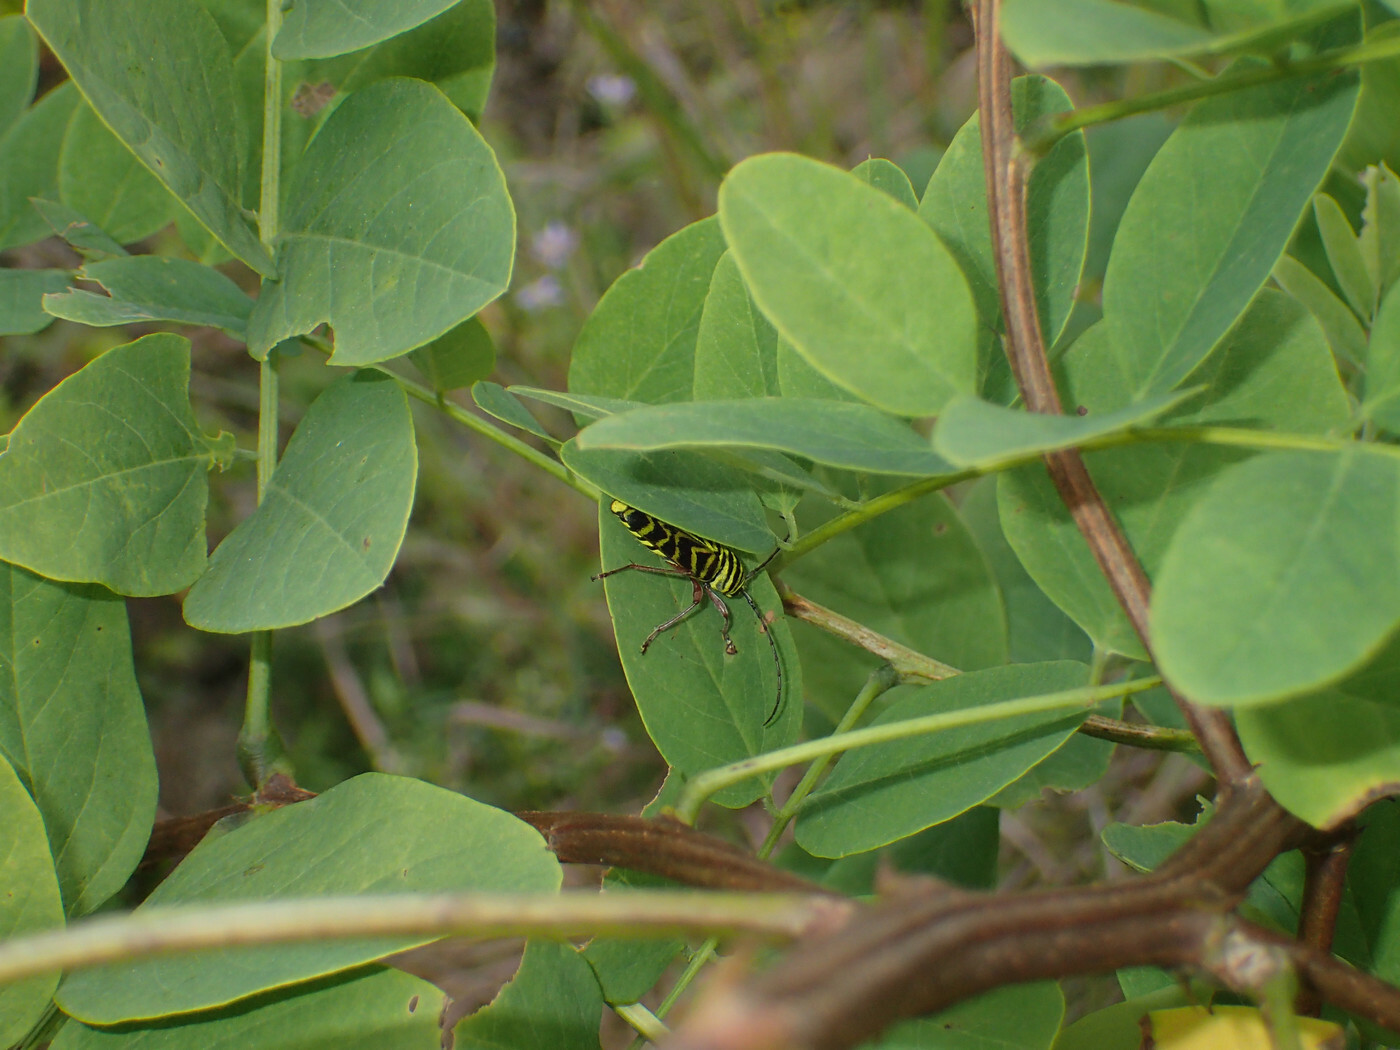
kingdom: Animalia
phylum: Arthropoda
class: Insecta
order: Coleoptera
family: Cerambycidae
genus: Megacyllene
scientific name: Megacyllene robiniae
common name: Locust borer
